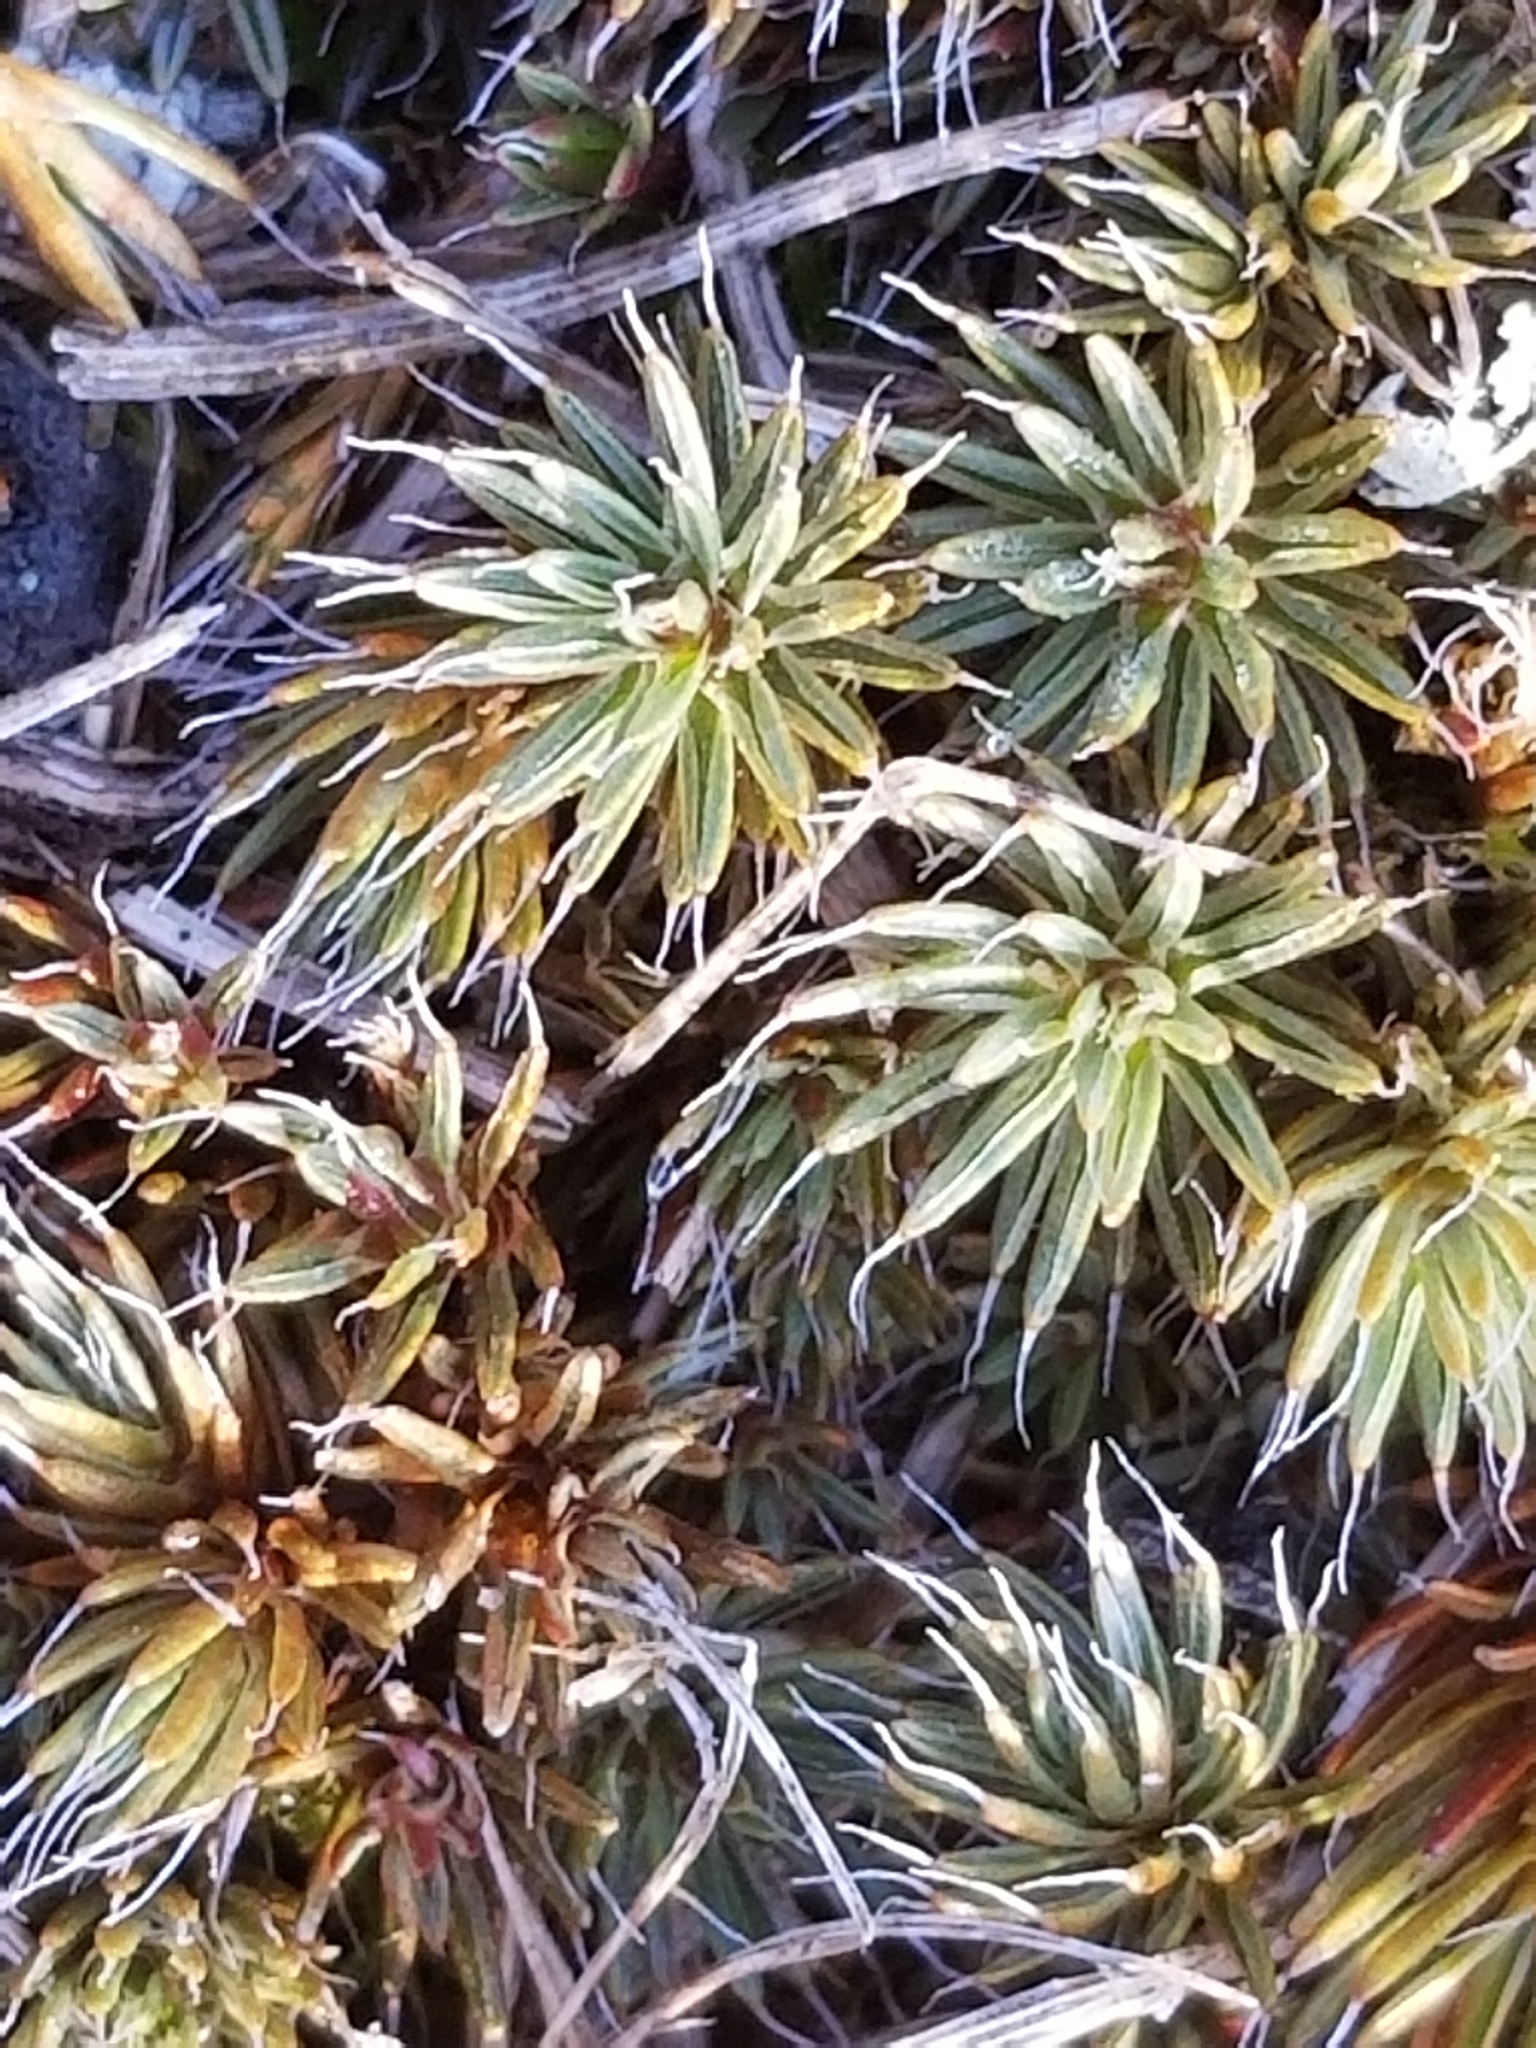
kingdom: Plantae
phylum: Bryophyta
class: Polytrichopsida
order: Polytrichales
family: Polytrichaceae
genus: Polytrichum
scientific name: Polytrichum piliferum
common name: Bristly haircap
